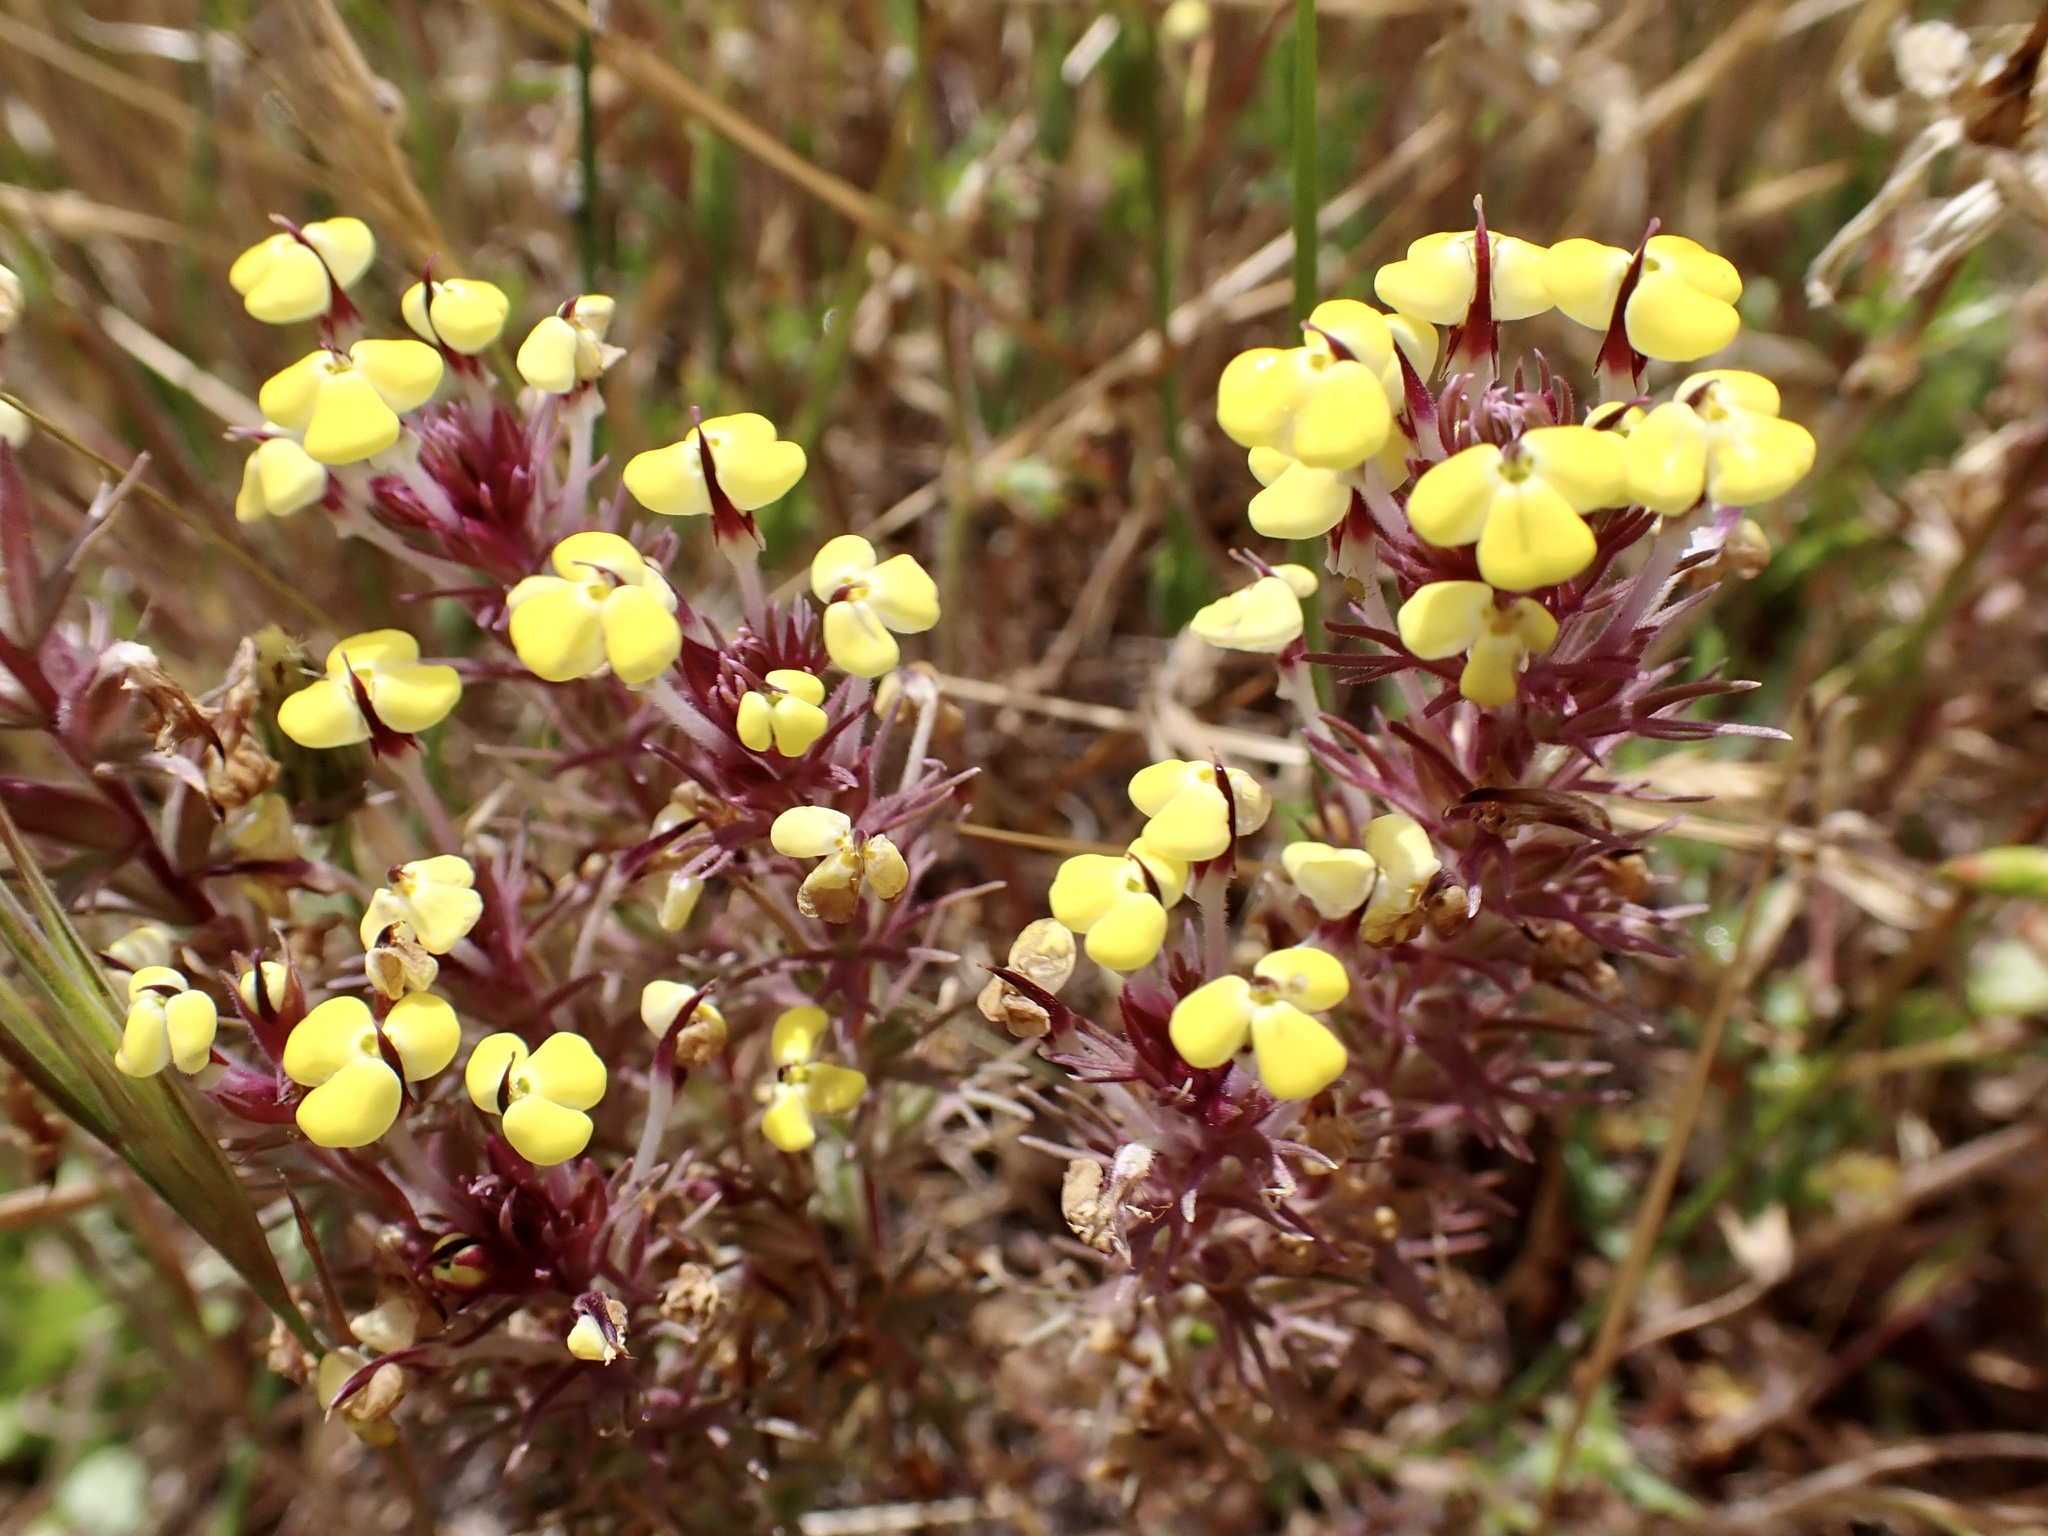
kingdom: Plantae
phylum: Tracheophyta
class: Magnoliopsida
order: Lamiales
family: Orobanchaceae
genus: Triphysaria
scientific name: Triphysaria eriantha
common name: Johnny-tuck
